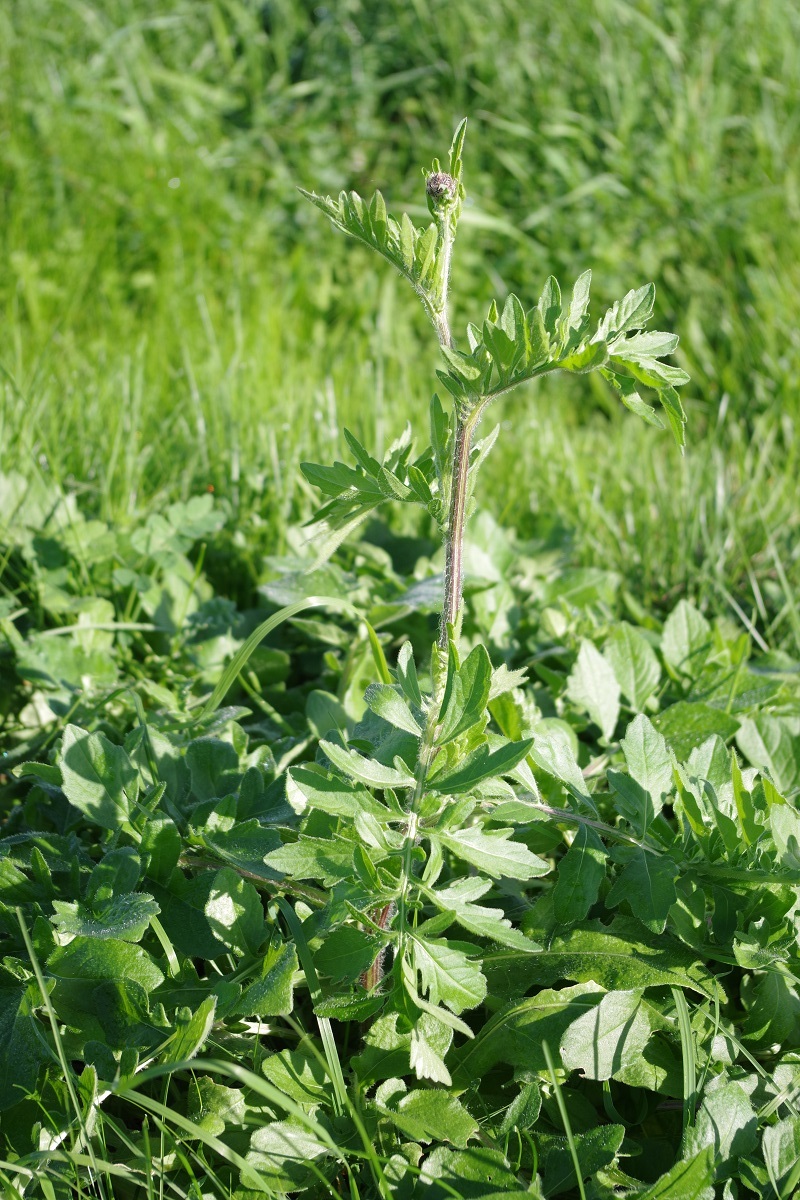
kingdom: Plantae
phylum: Tracheophyta
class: Magnoliopsida
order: Asterales
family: Asteraceae
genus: Centaurea
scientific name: Centaurea scabiosa
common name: Greater knapweed
